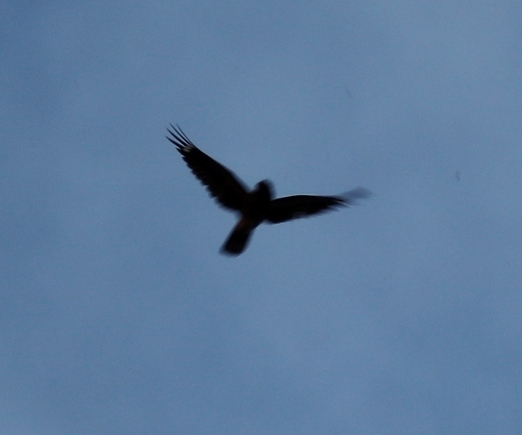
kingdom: Animalia
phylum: Chordata
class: Aves
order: Caprimulgiformes
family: Caprimulgidae
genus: Caprimulgus
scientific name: Caprimulgus pectoralis
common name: Fiery-necked nightjar
